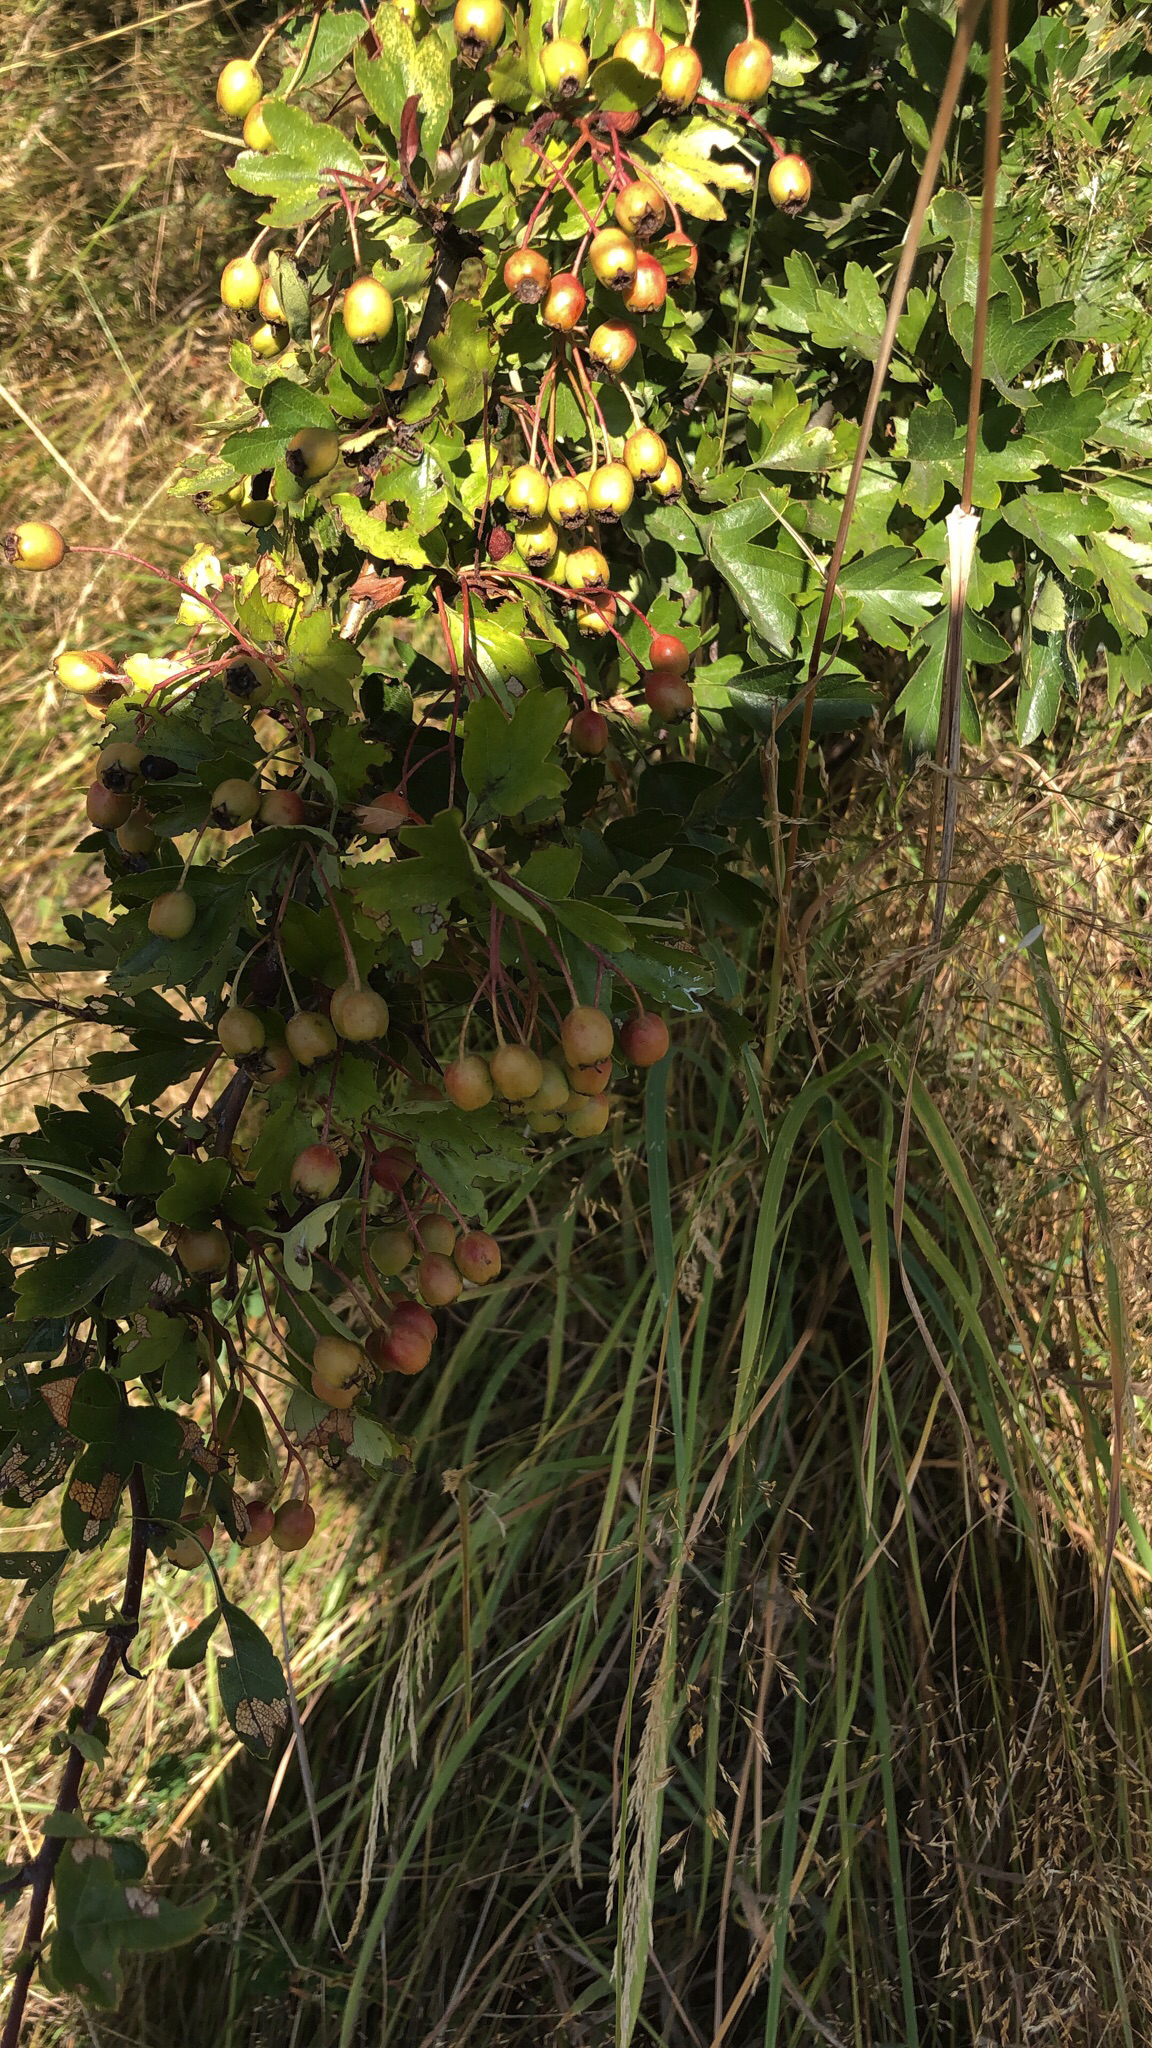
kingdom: Plantae
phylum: Tracheophyta
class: Magnoliopsida
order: Rosales
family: Rosaceae
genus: Crataegus
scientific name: Crataegus monogyna
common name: Hawthorn
